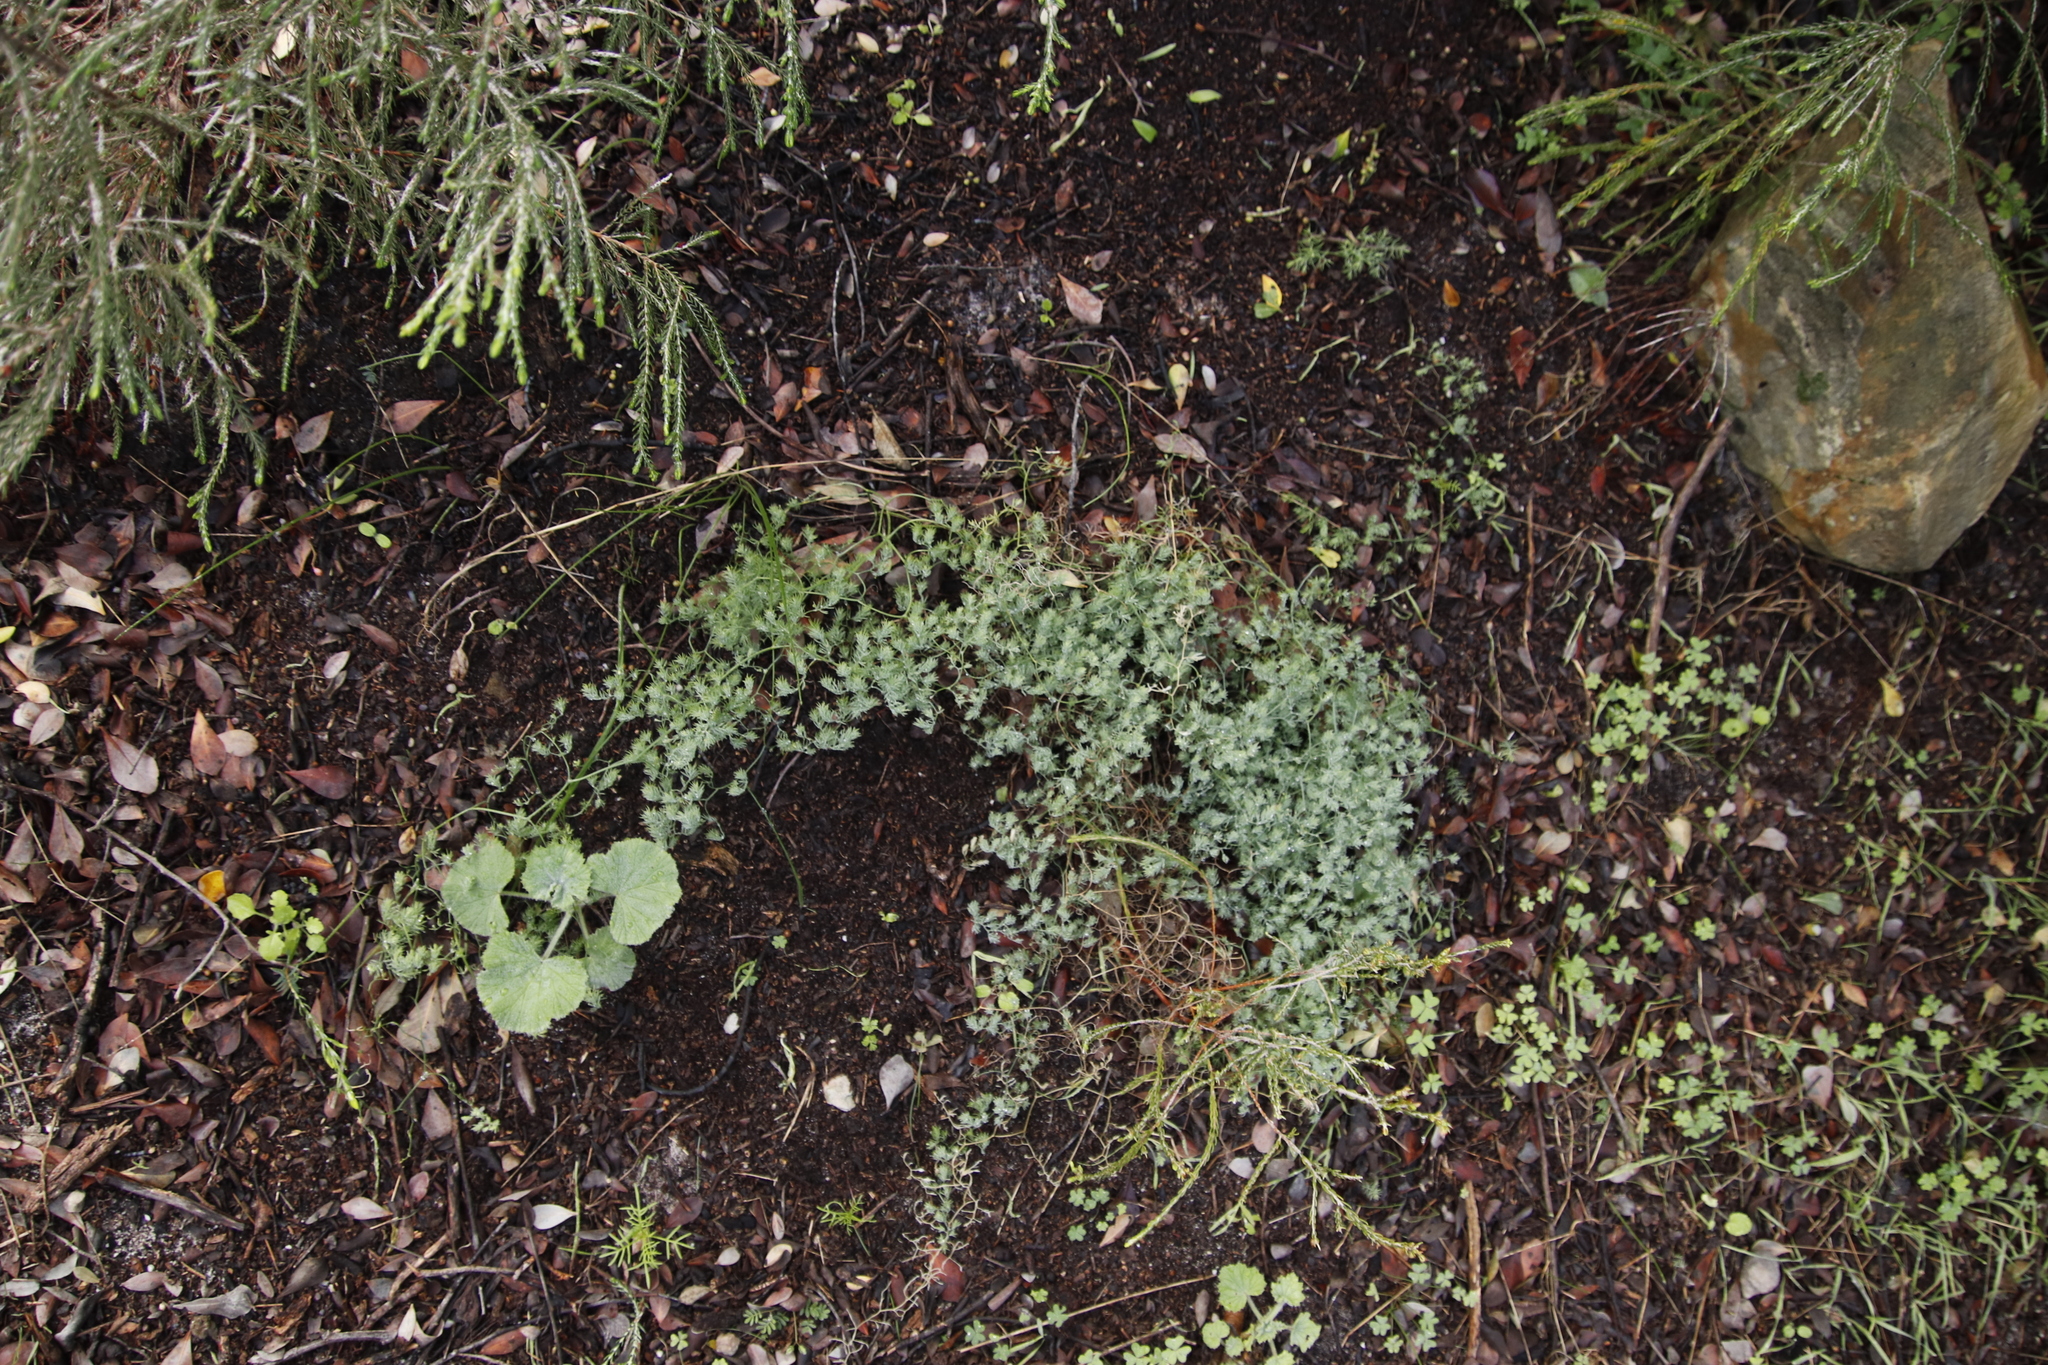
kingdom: Plantae
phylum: Tracheophyta
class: Liliopsida
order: Asparagales
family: Asparagaceae
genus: Asparagus
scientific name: Asparagus declinatus
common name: Bridal-creeper
